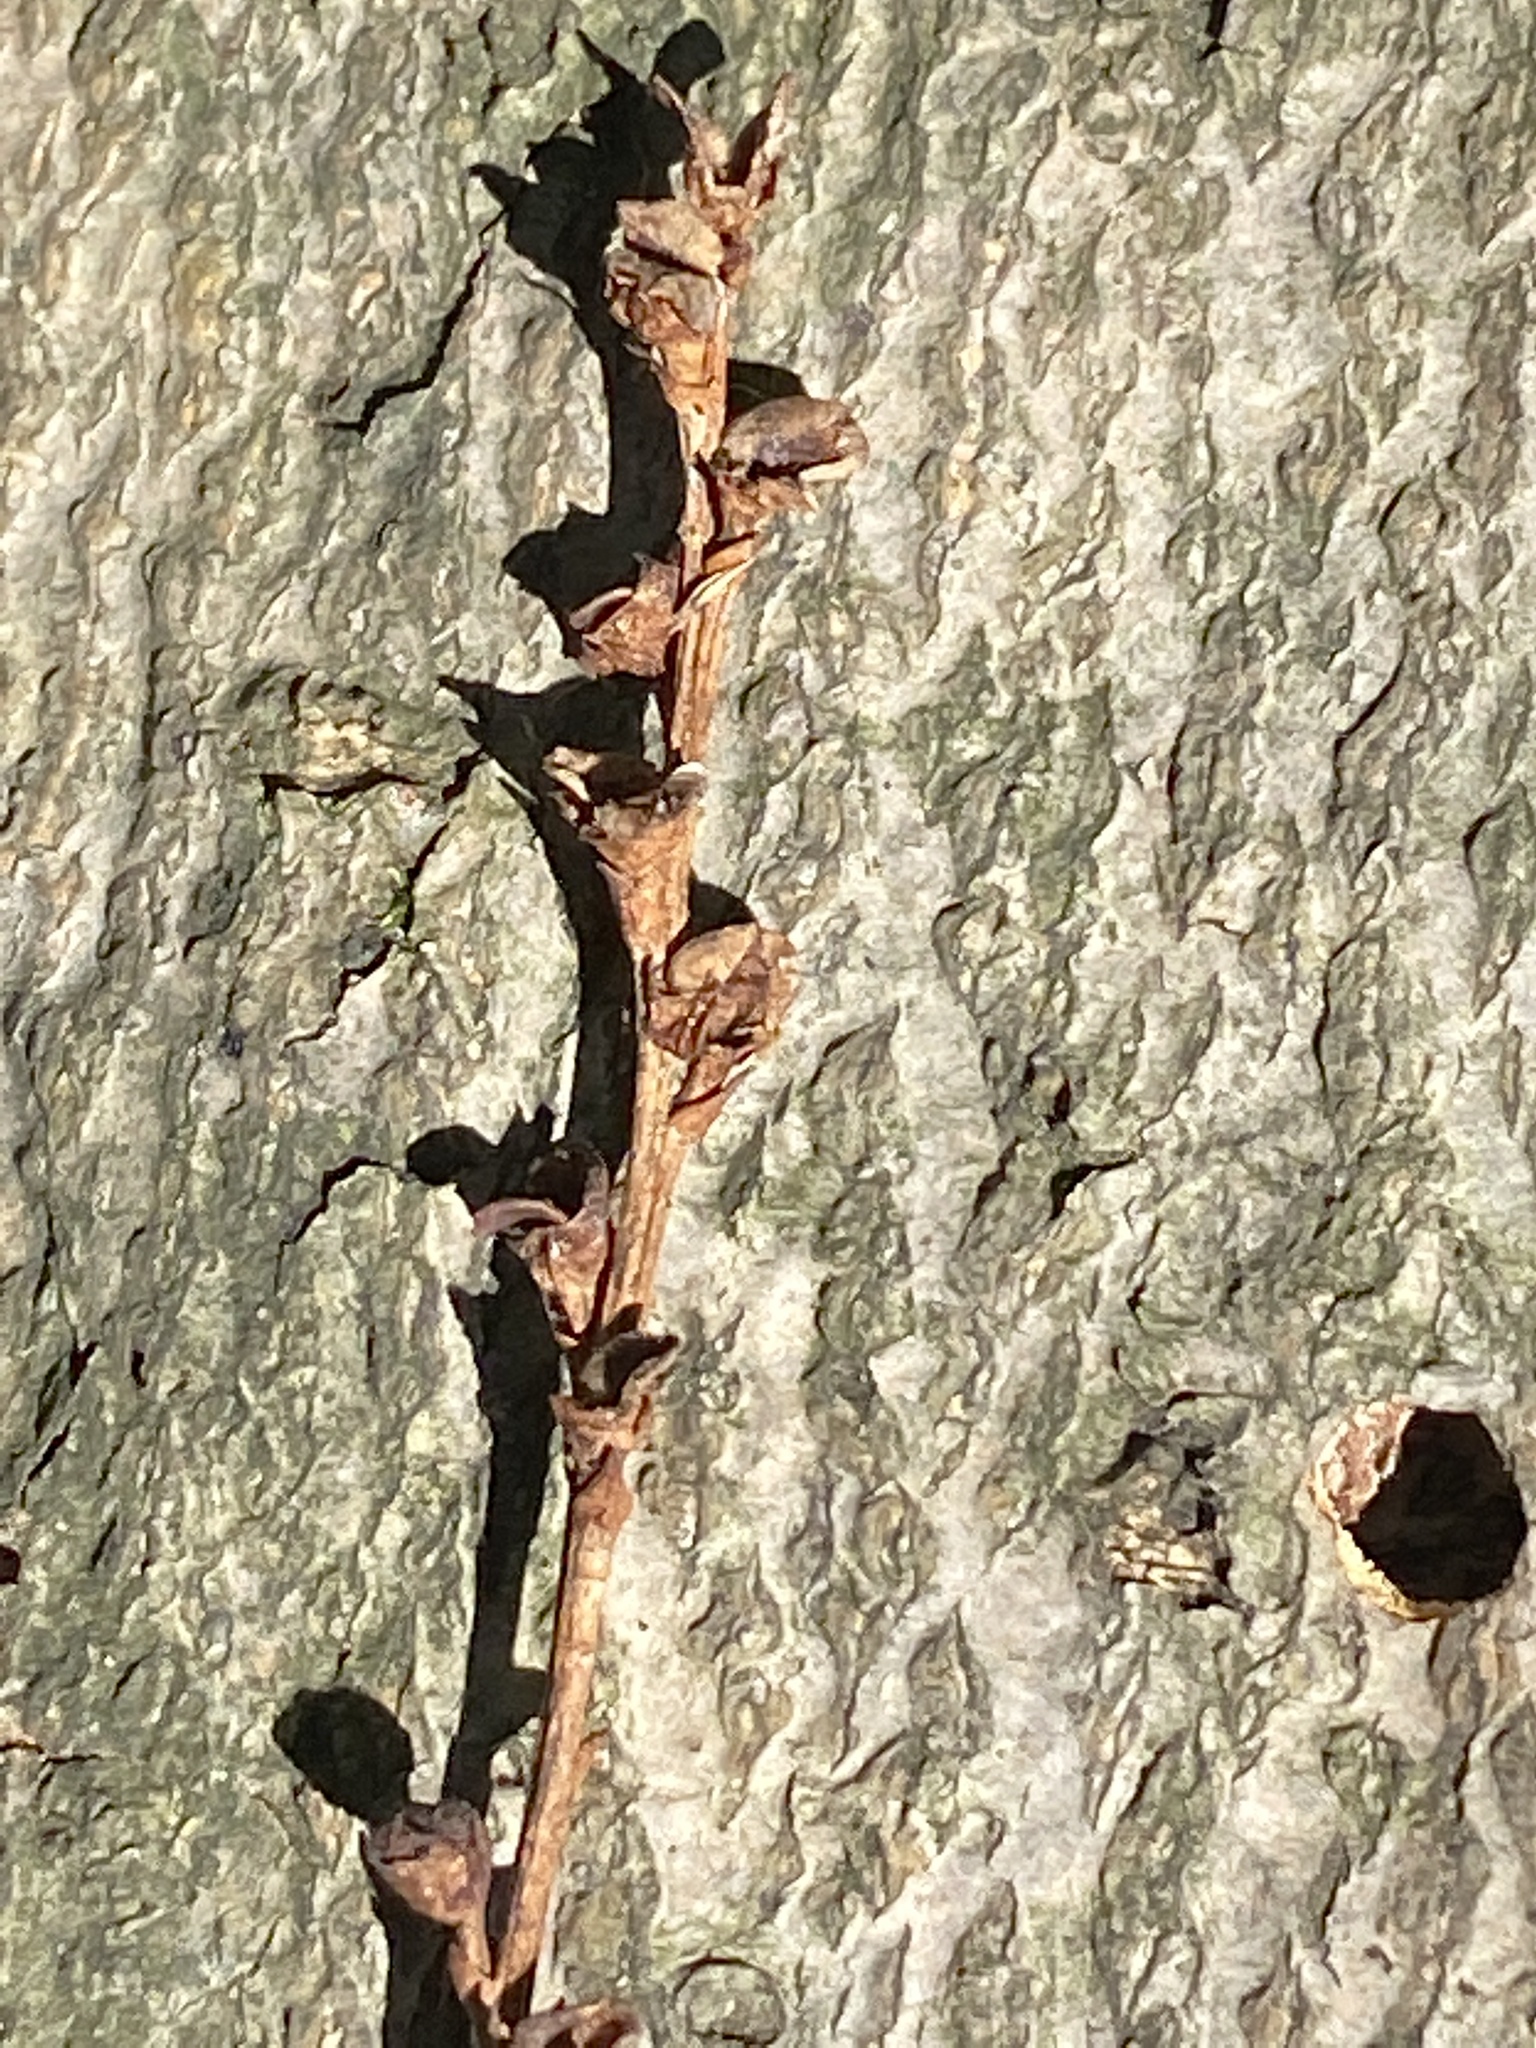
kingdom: Plantae
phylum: Tracheophyta
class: Magnoliopsida
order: Lamiales
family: Orobanchaceae
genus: Epifagus
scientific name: Epifagus virginiana
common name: Beechdrops
